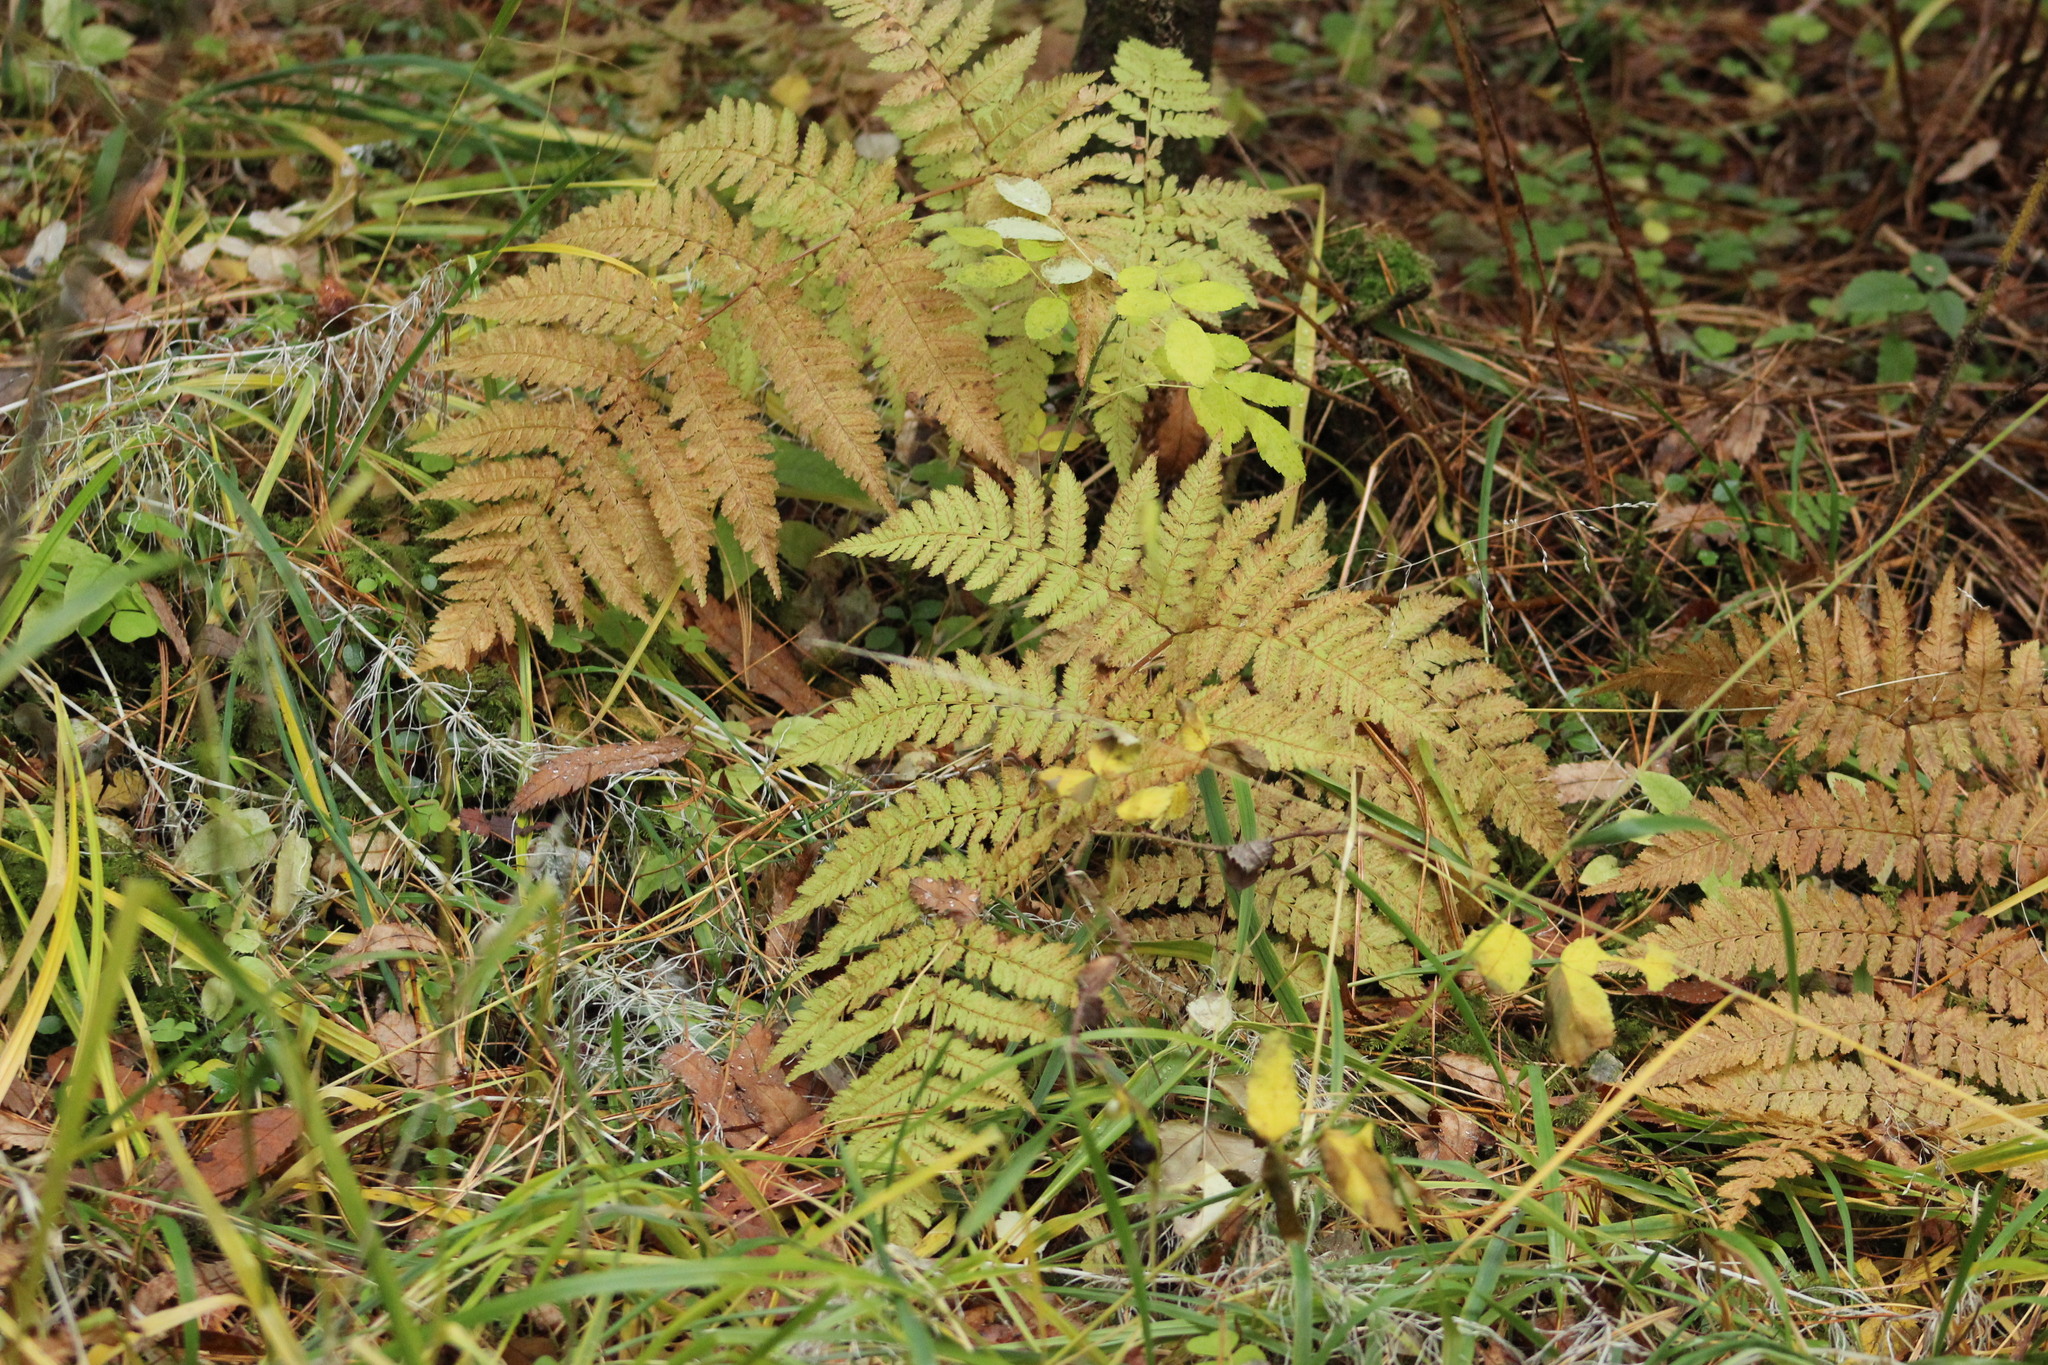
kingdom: Plantae
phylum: Tracheophyta
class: Polypodiopsida
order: Polypodiales
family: Dryopteridaceae
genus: Dryopteris
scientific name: Dryopteris expansa
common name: Northern buckler fern
